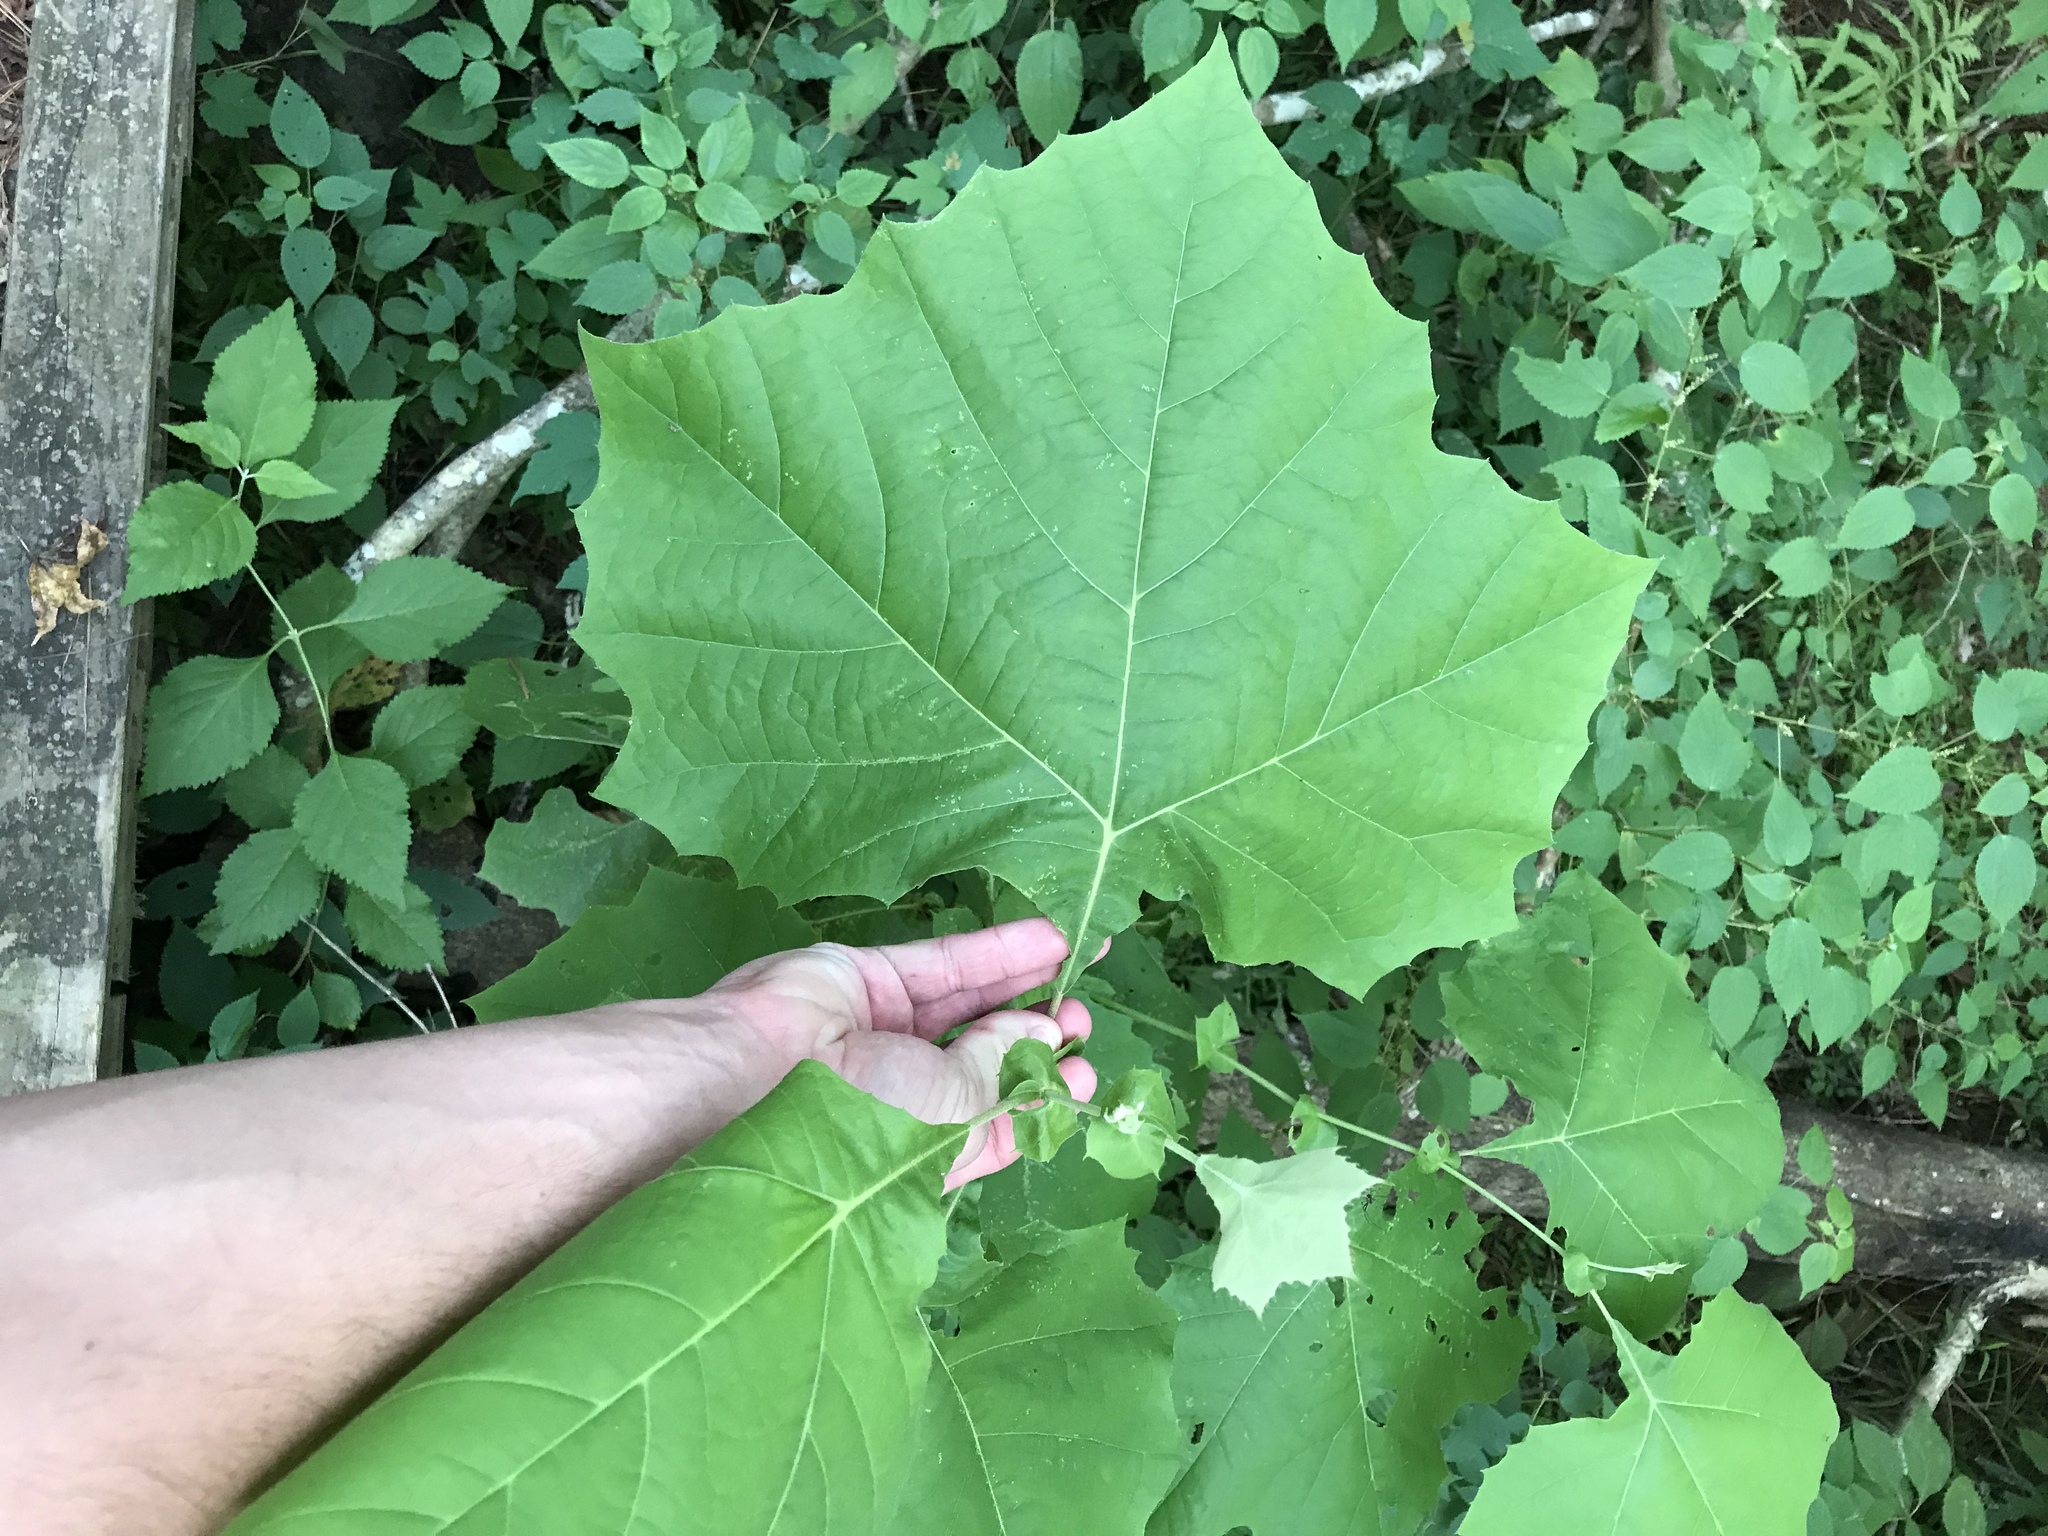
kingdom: Plantae
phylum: Tracheophyta
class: Magnoliopsida
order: Proteales
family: Platanaceae
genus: Platanus
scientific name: Platanus occidentalis
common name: American sycamore
